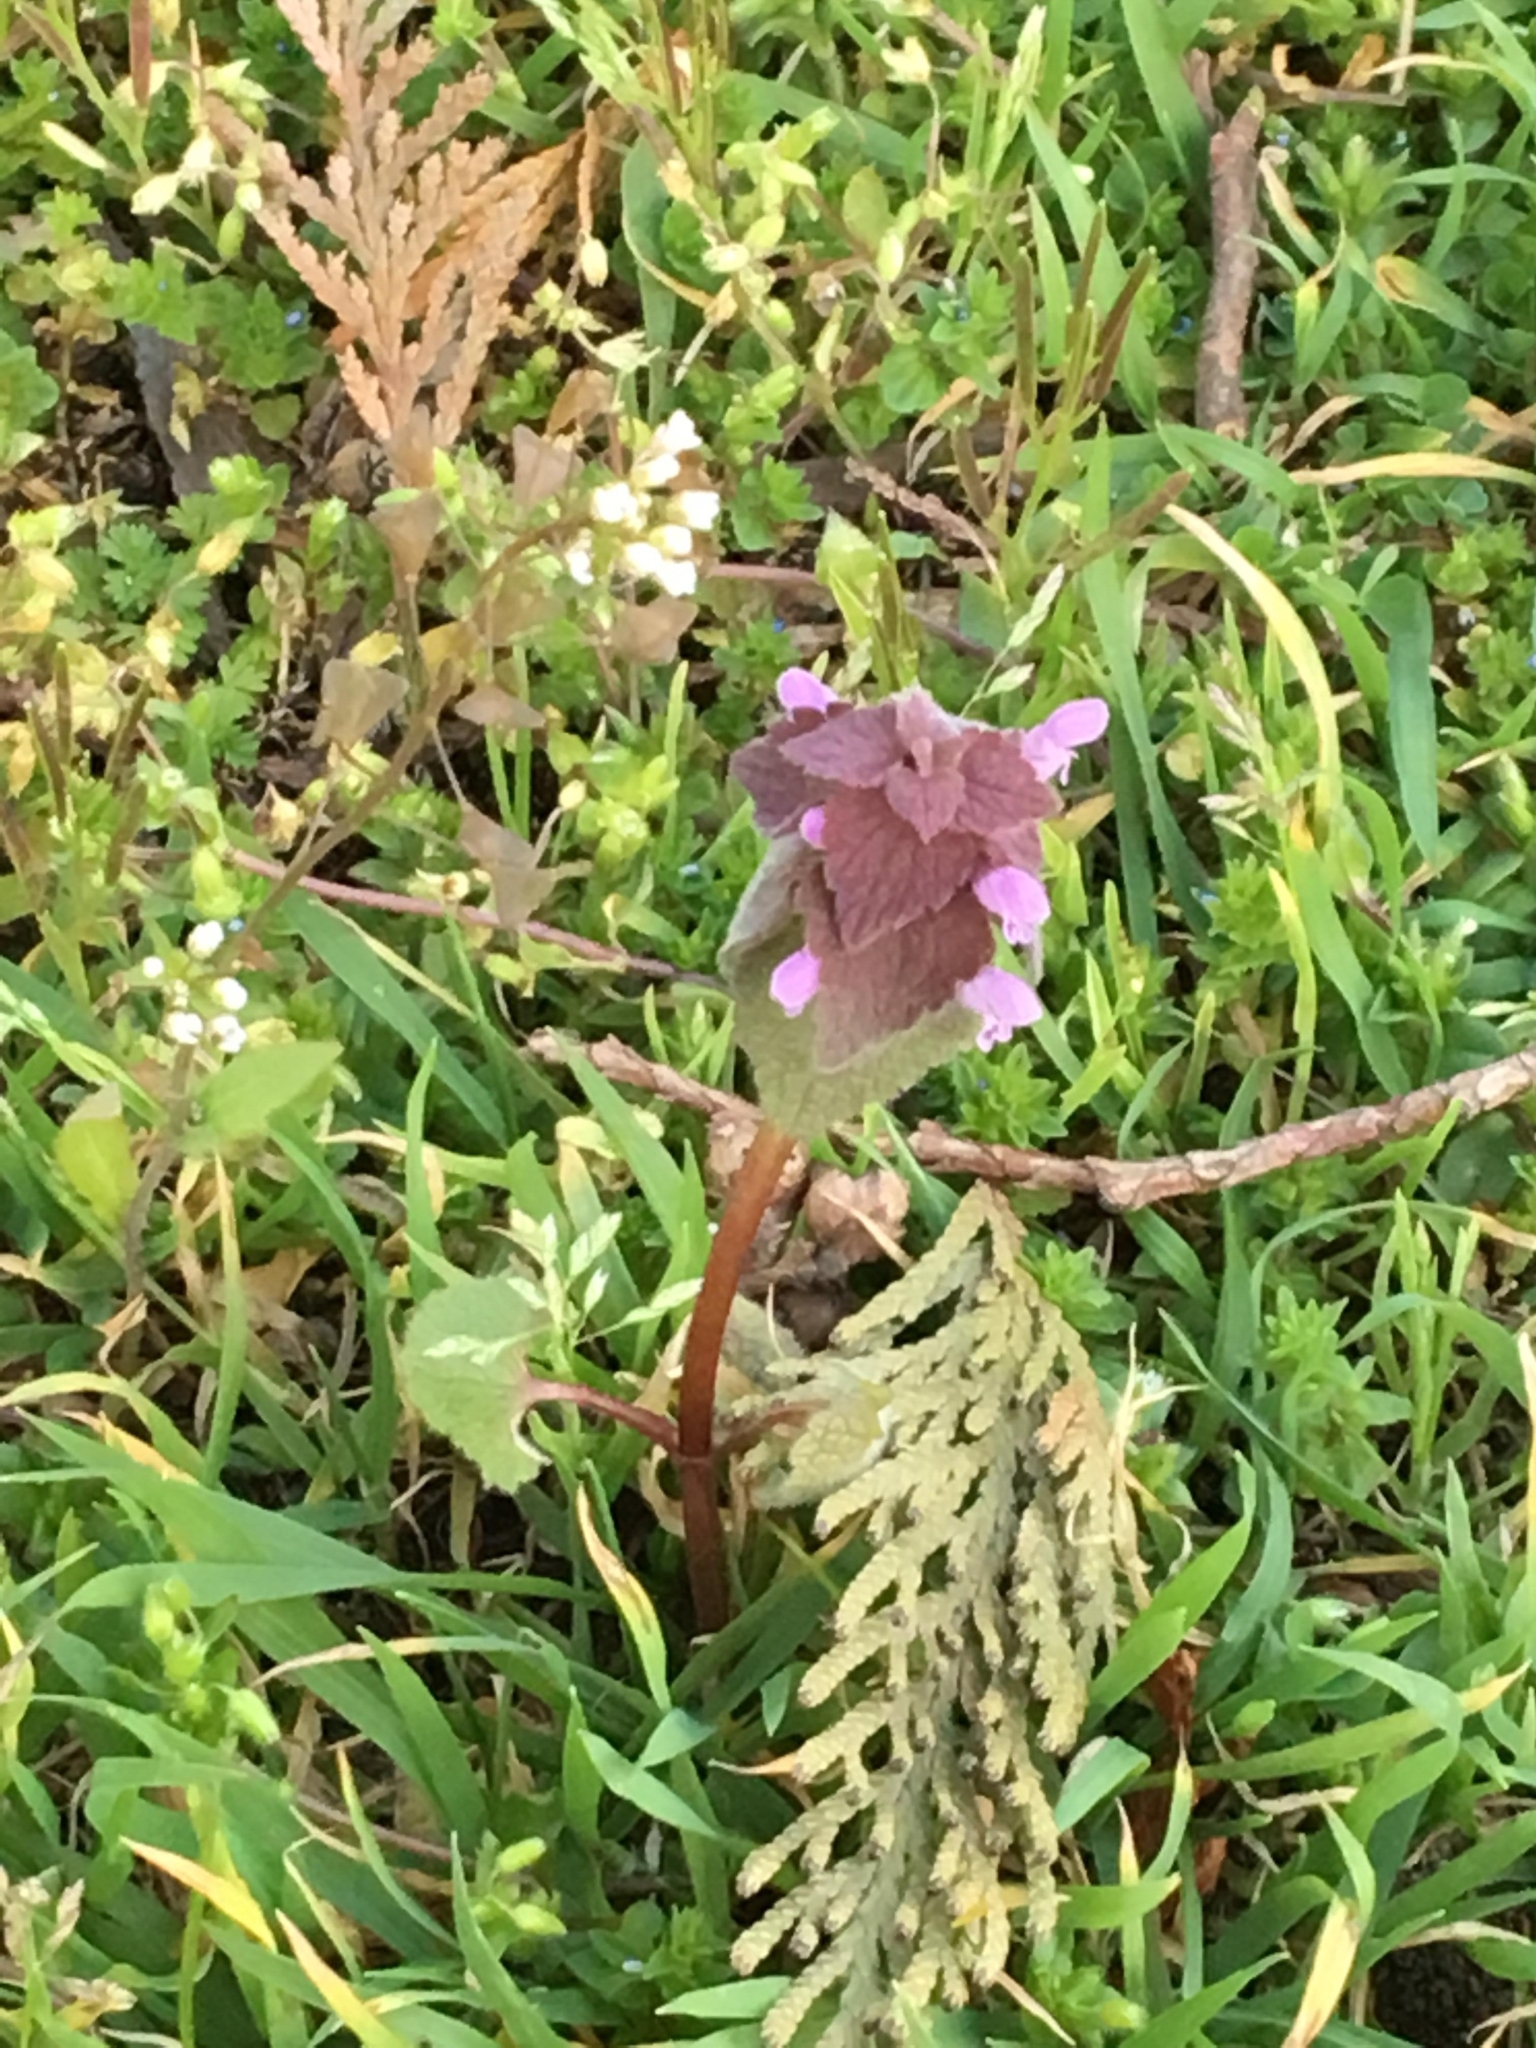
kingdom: Plantae
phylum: Tracheophyta
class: Magnoliopsida
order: Lamiales
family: Lamiaceae
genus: Lamium
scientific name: Lamium purpureum
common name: Red dead-nettle
